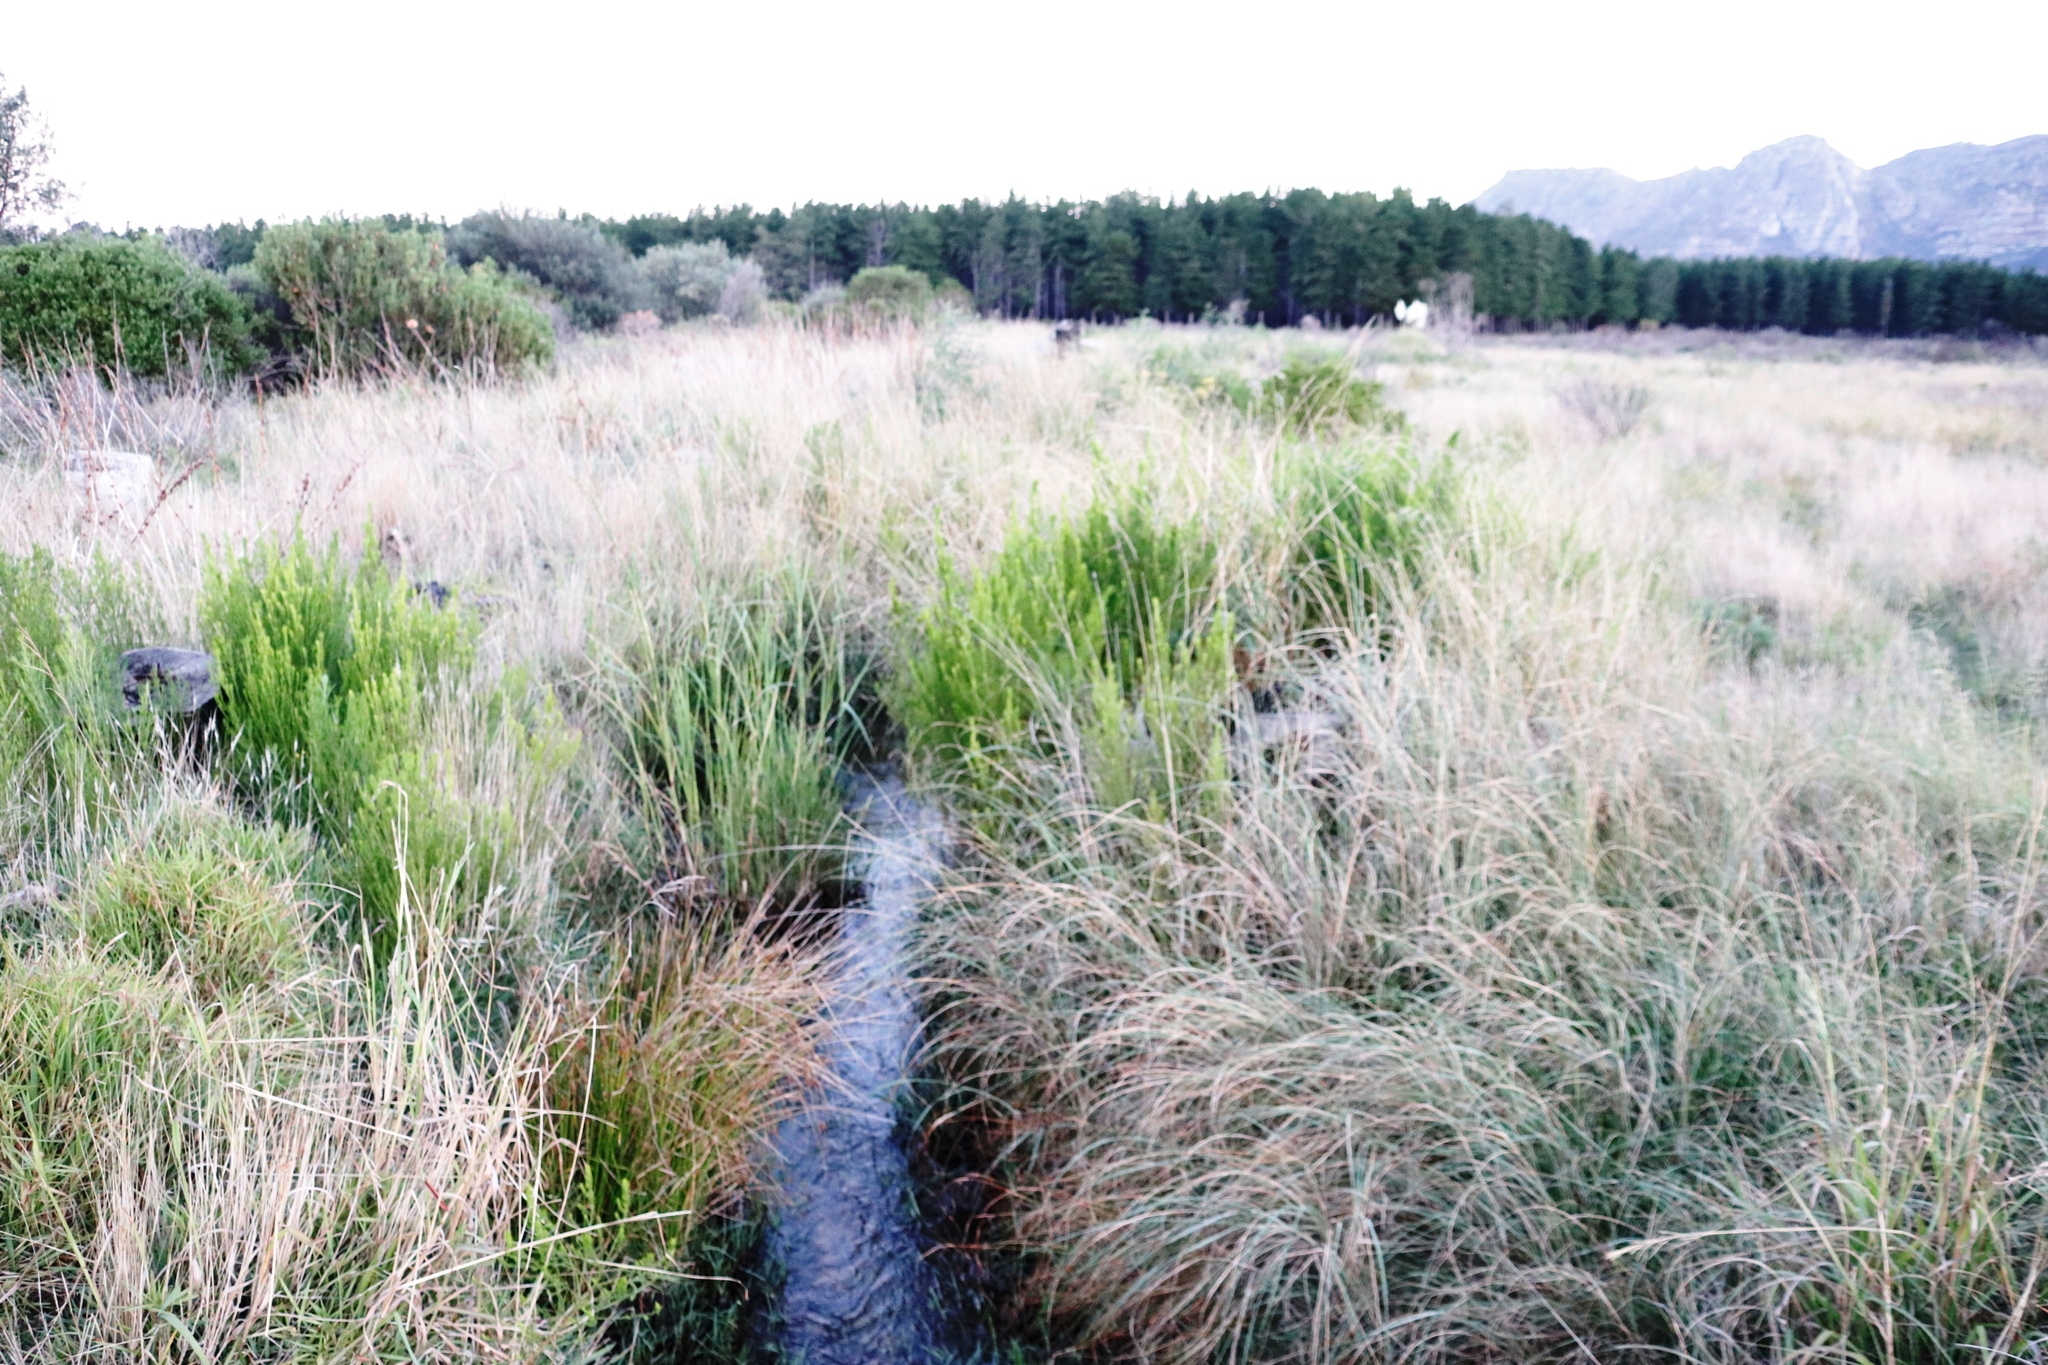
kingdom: Plantae
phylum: Tracheophyta
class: Magnoliopsida
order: Fabales
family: Fabaceae
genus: Psoralea
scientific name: Psoralea pinnata
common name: African scurfpea
